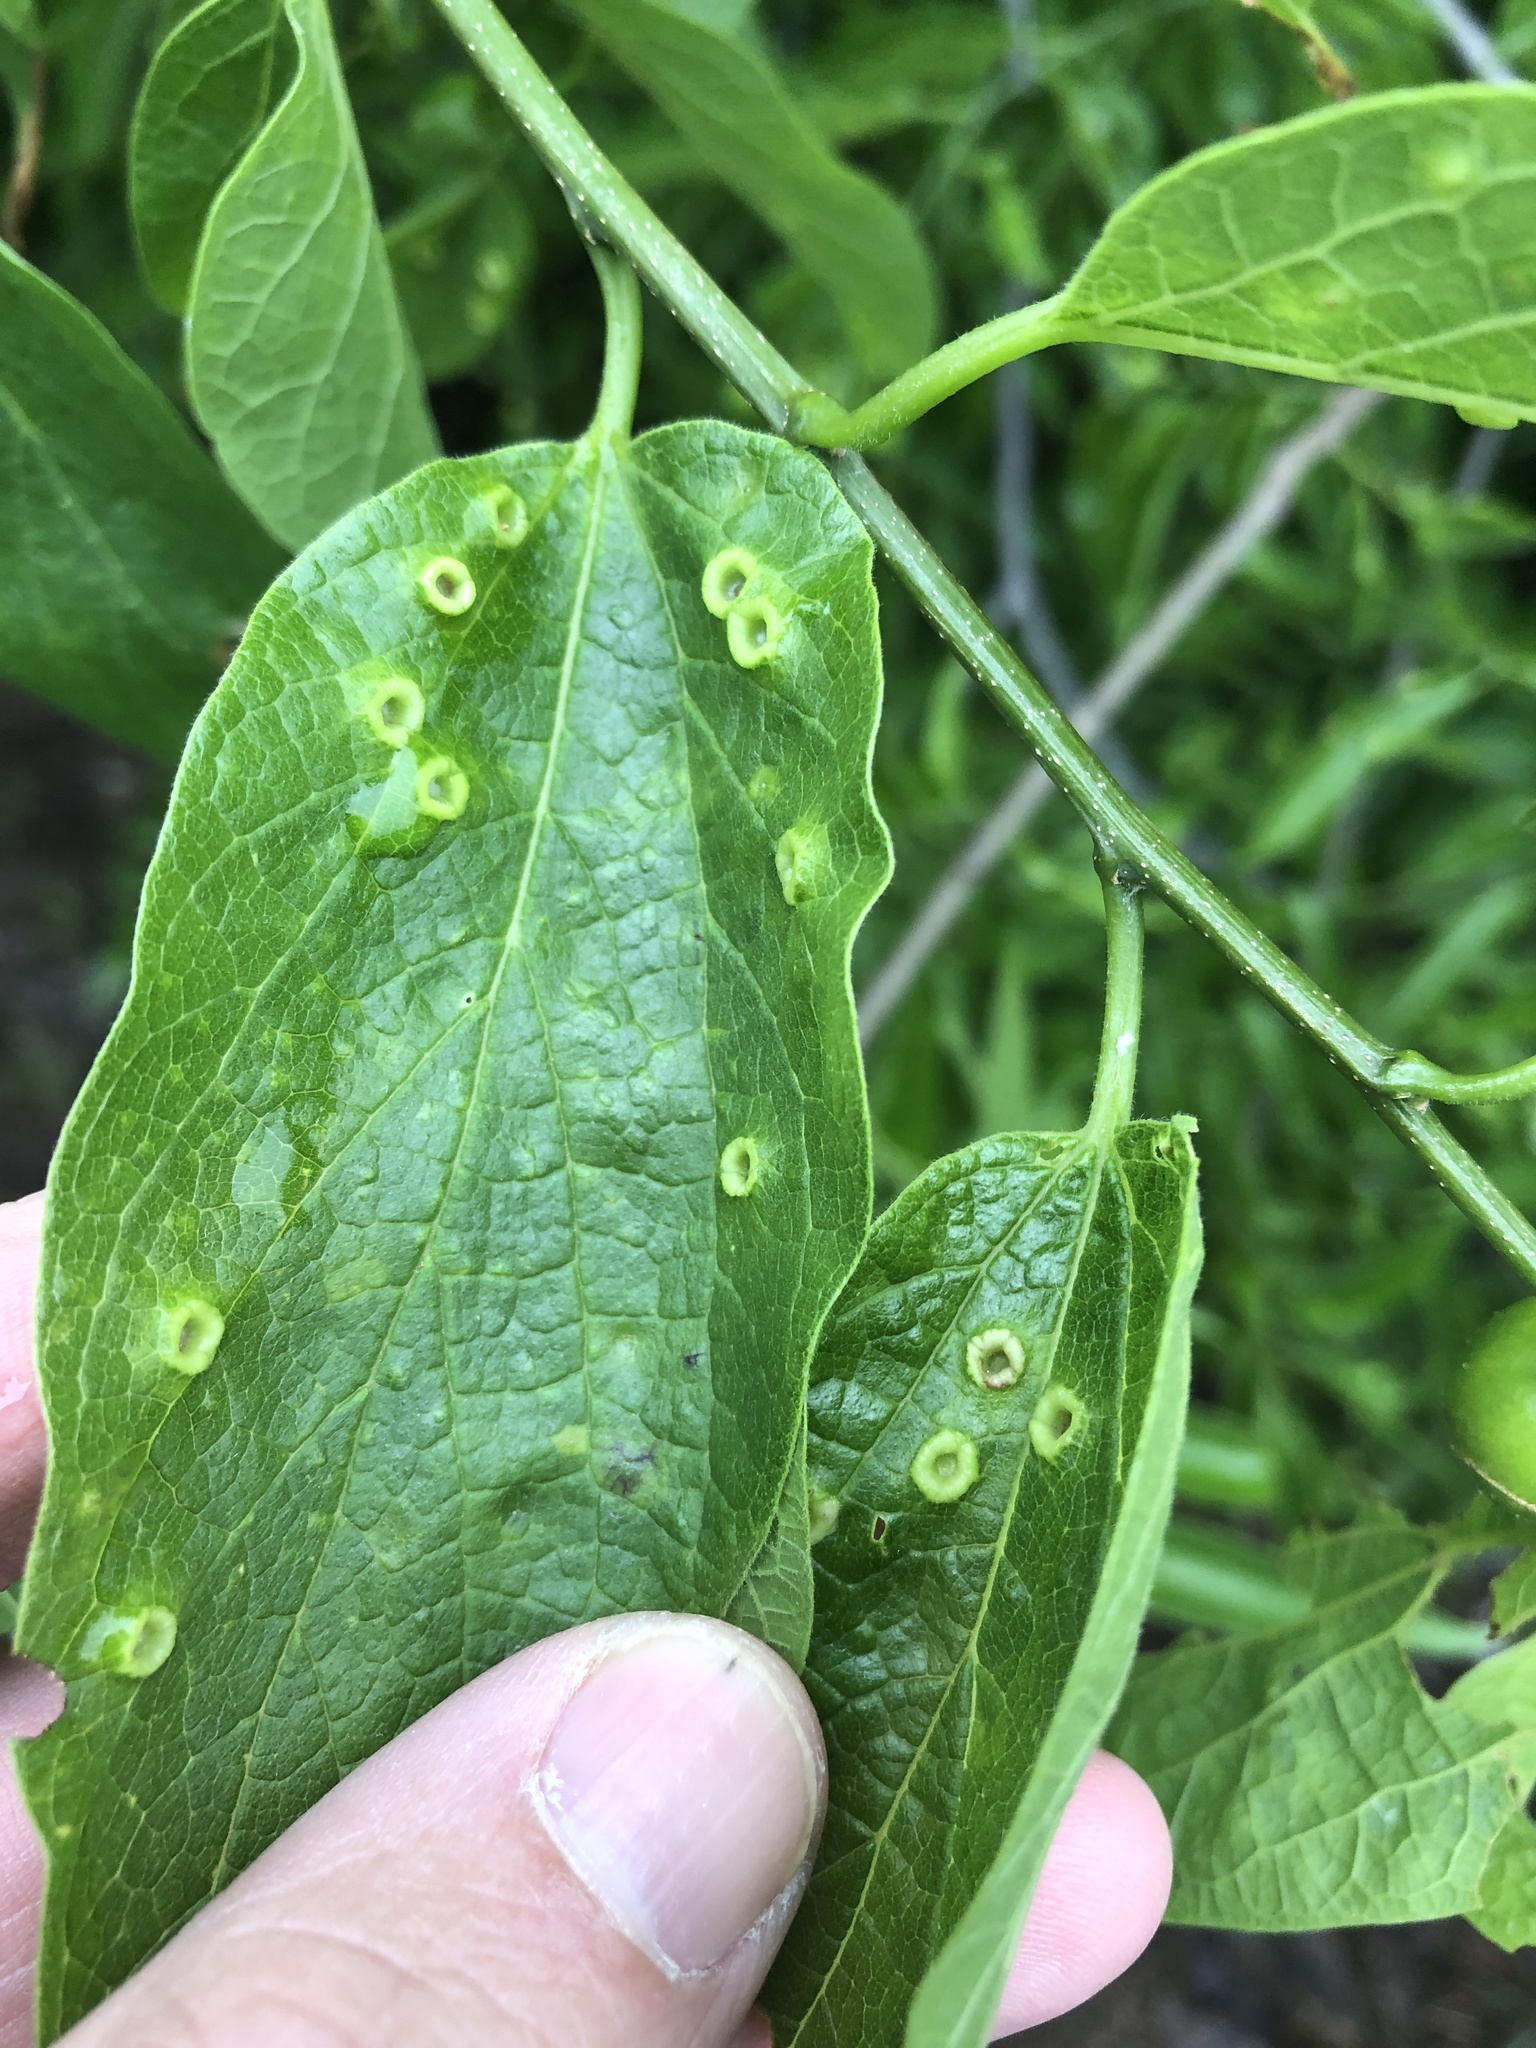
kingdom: Animalia
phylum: Arthropoda
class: Insecta
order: Hemiptera
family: Aphalaridae
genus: Pachypsylla
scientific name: Pachypsylla celtidismamma
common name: Hackberry nipplegall psyllid
